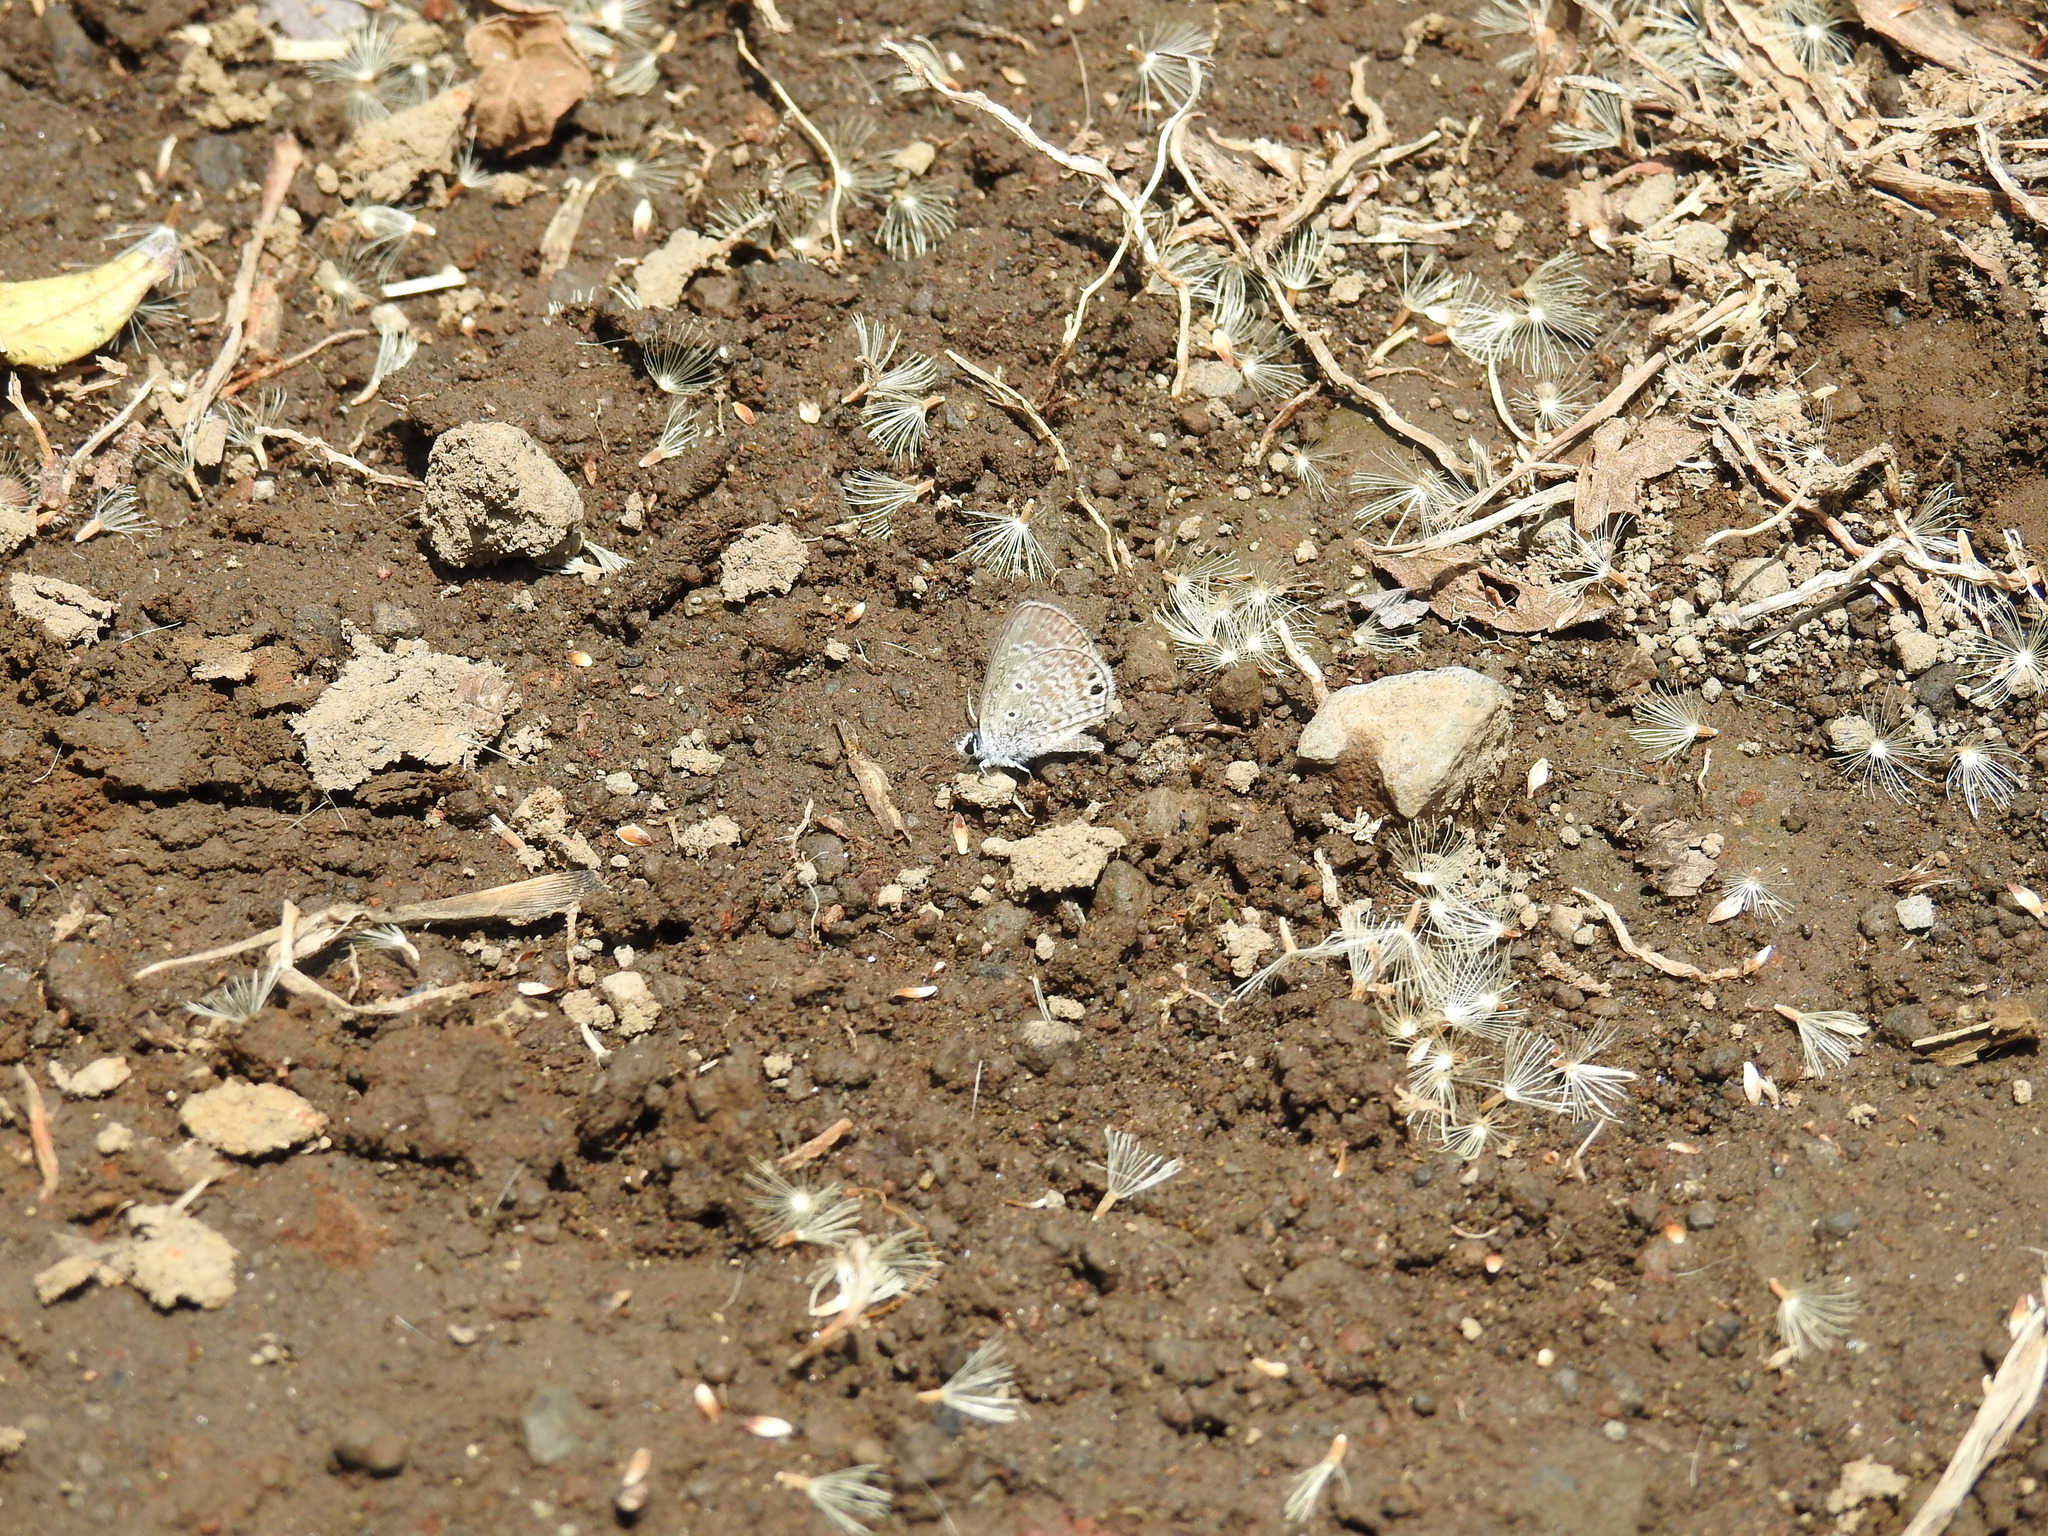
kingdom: Animalia
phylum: Arthropoda
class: Insecta
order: Lepidoptera
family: Lycaenidae
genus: Hemiargus
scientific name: Hemiargus ceraunus
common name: Ceraunus blue
